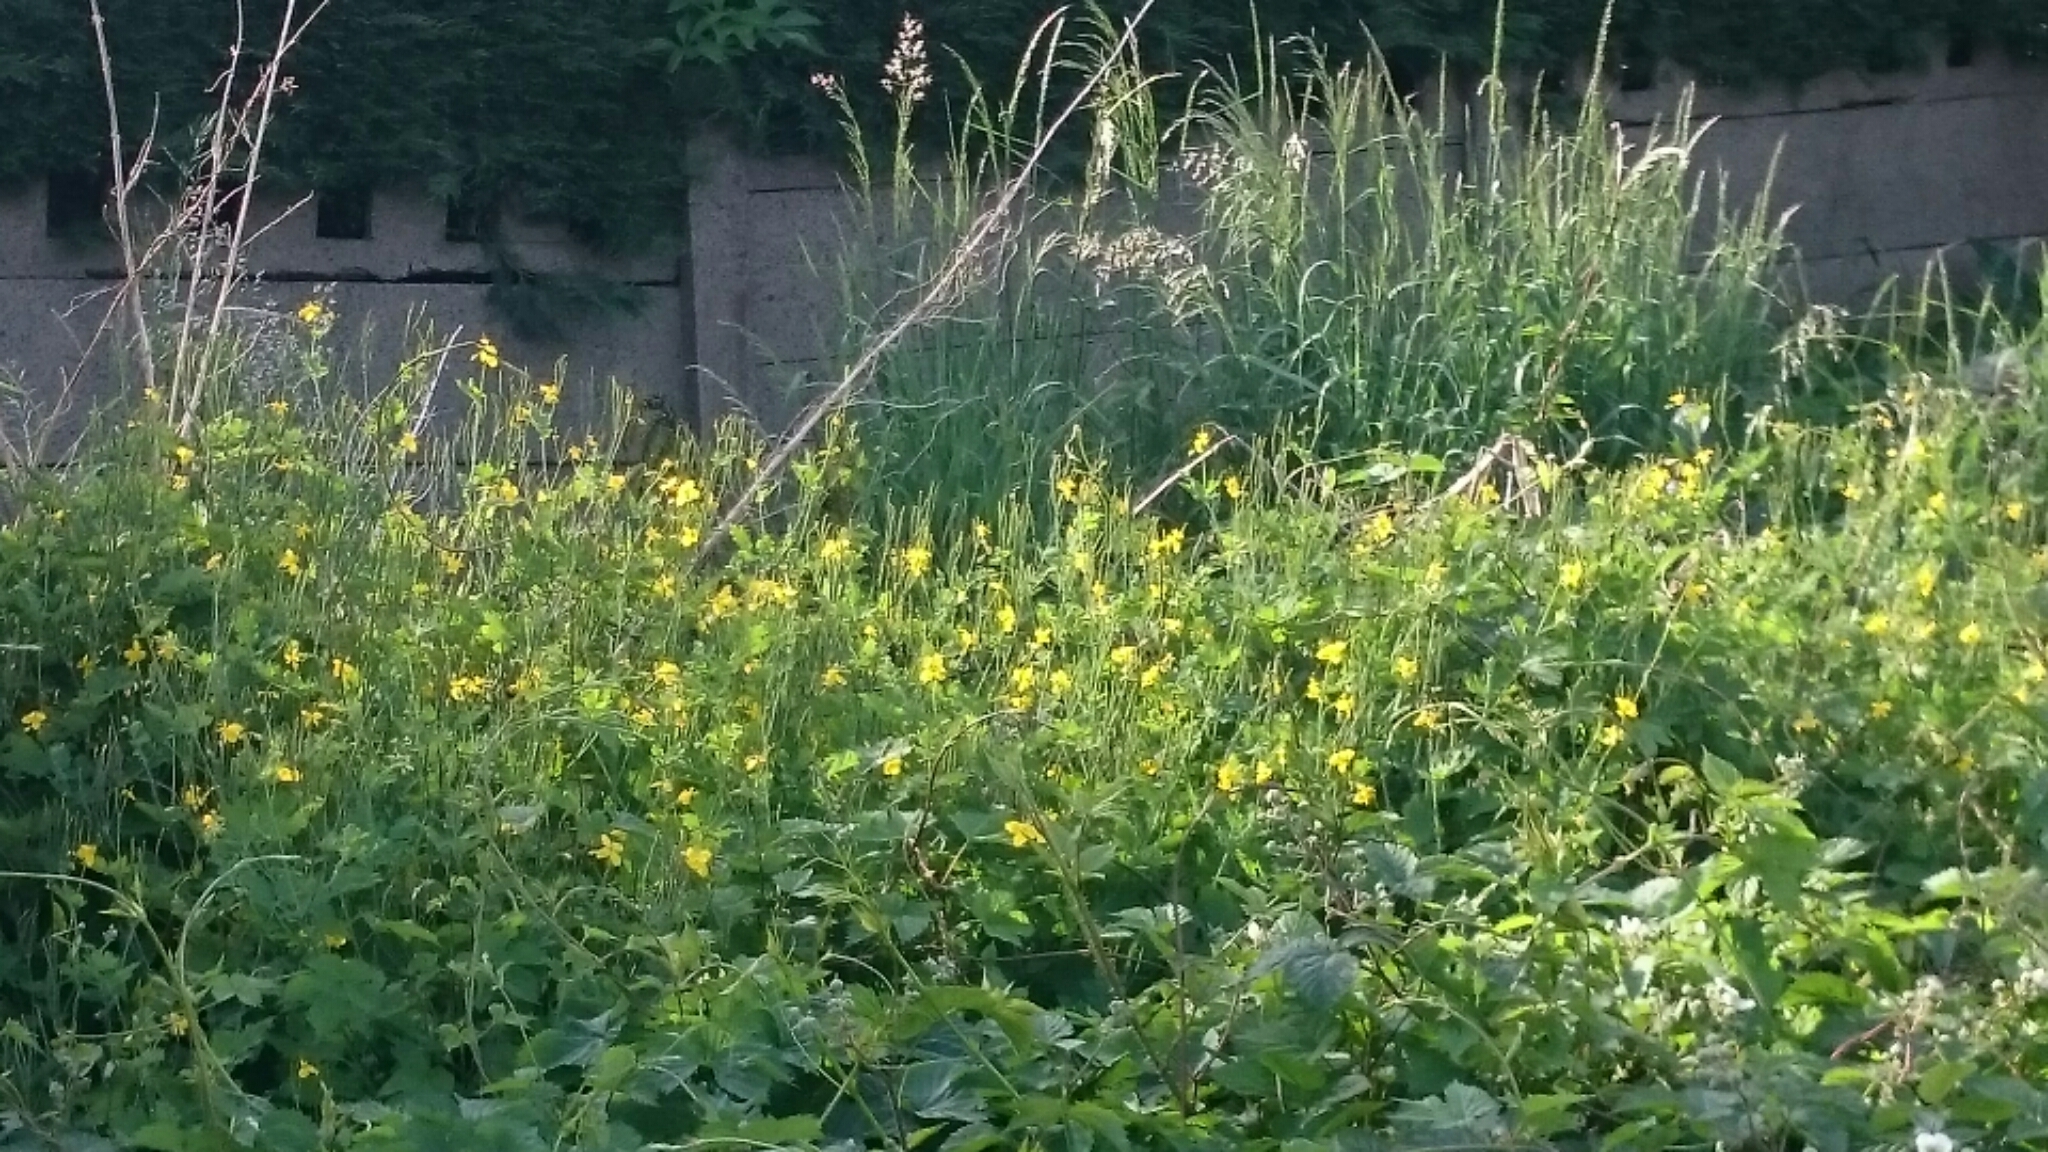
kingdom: Plantae
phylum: Tracheophyta
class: Magnoliopsida
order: Ranunculales
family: Papaveraceae
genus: Chelidonium
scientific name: Chelidonium majus
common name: Greater celandine
